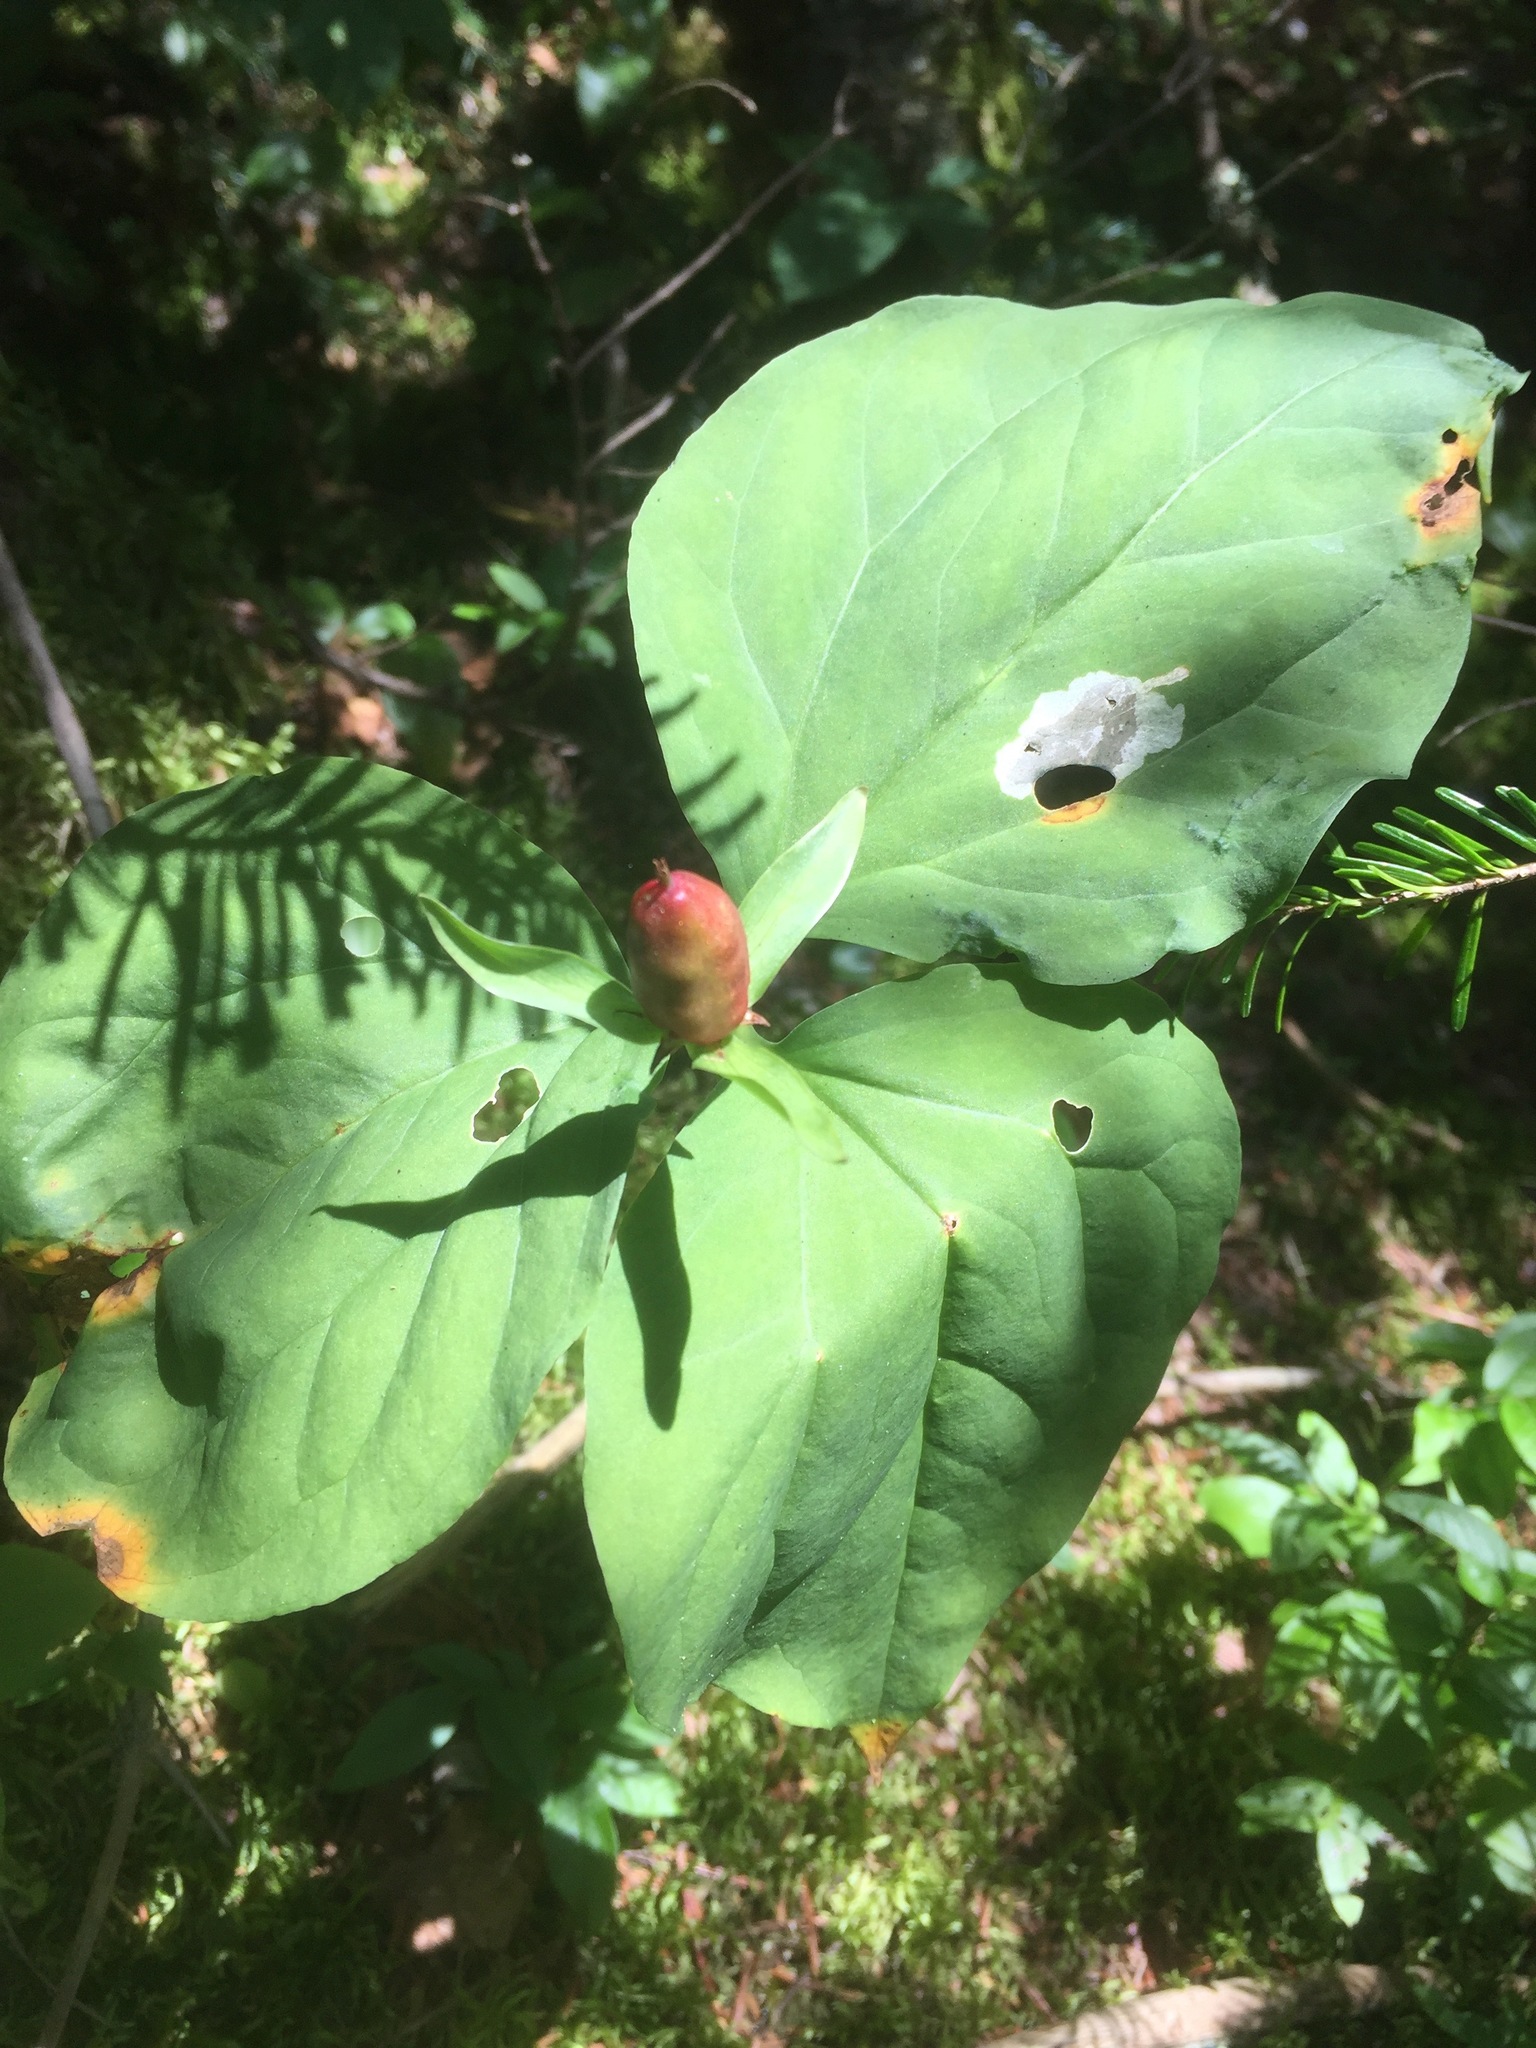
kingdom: Plantae
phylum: Tracheophyta
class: Liliopsida
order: Liliales
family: Melanthiaceae
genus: Trillium
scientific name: Trillium undulatum
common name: Paint trillium
